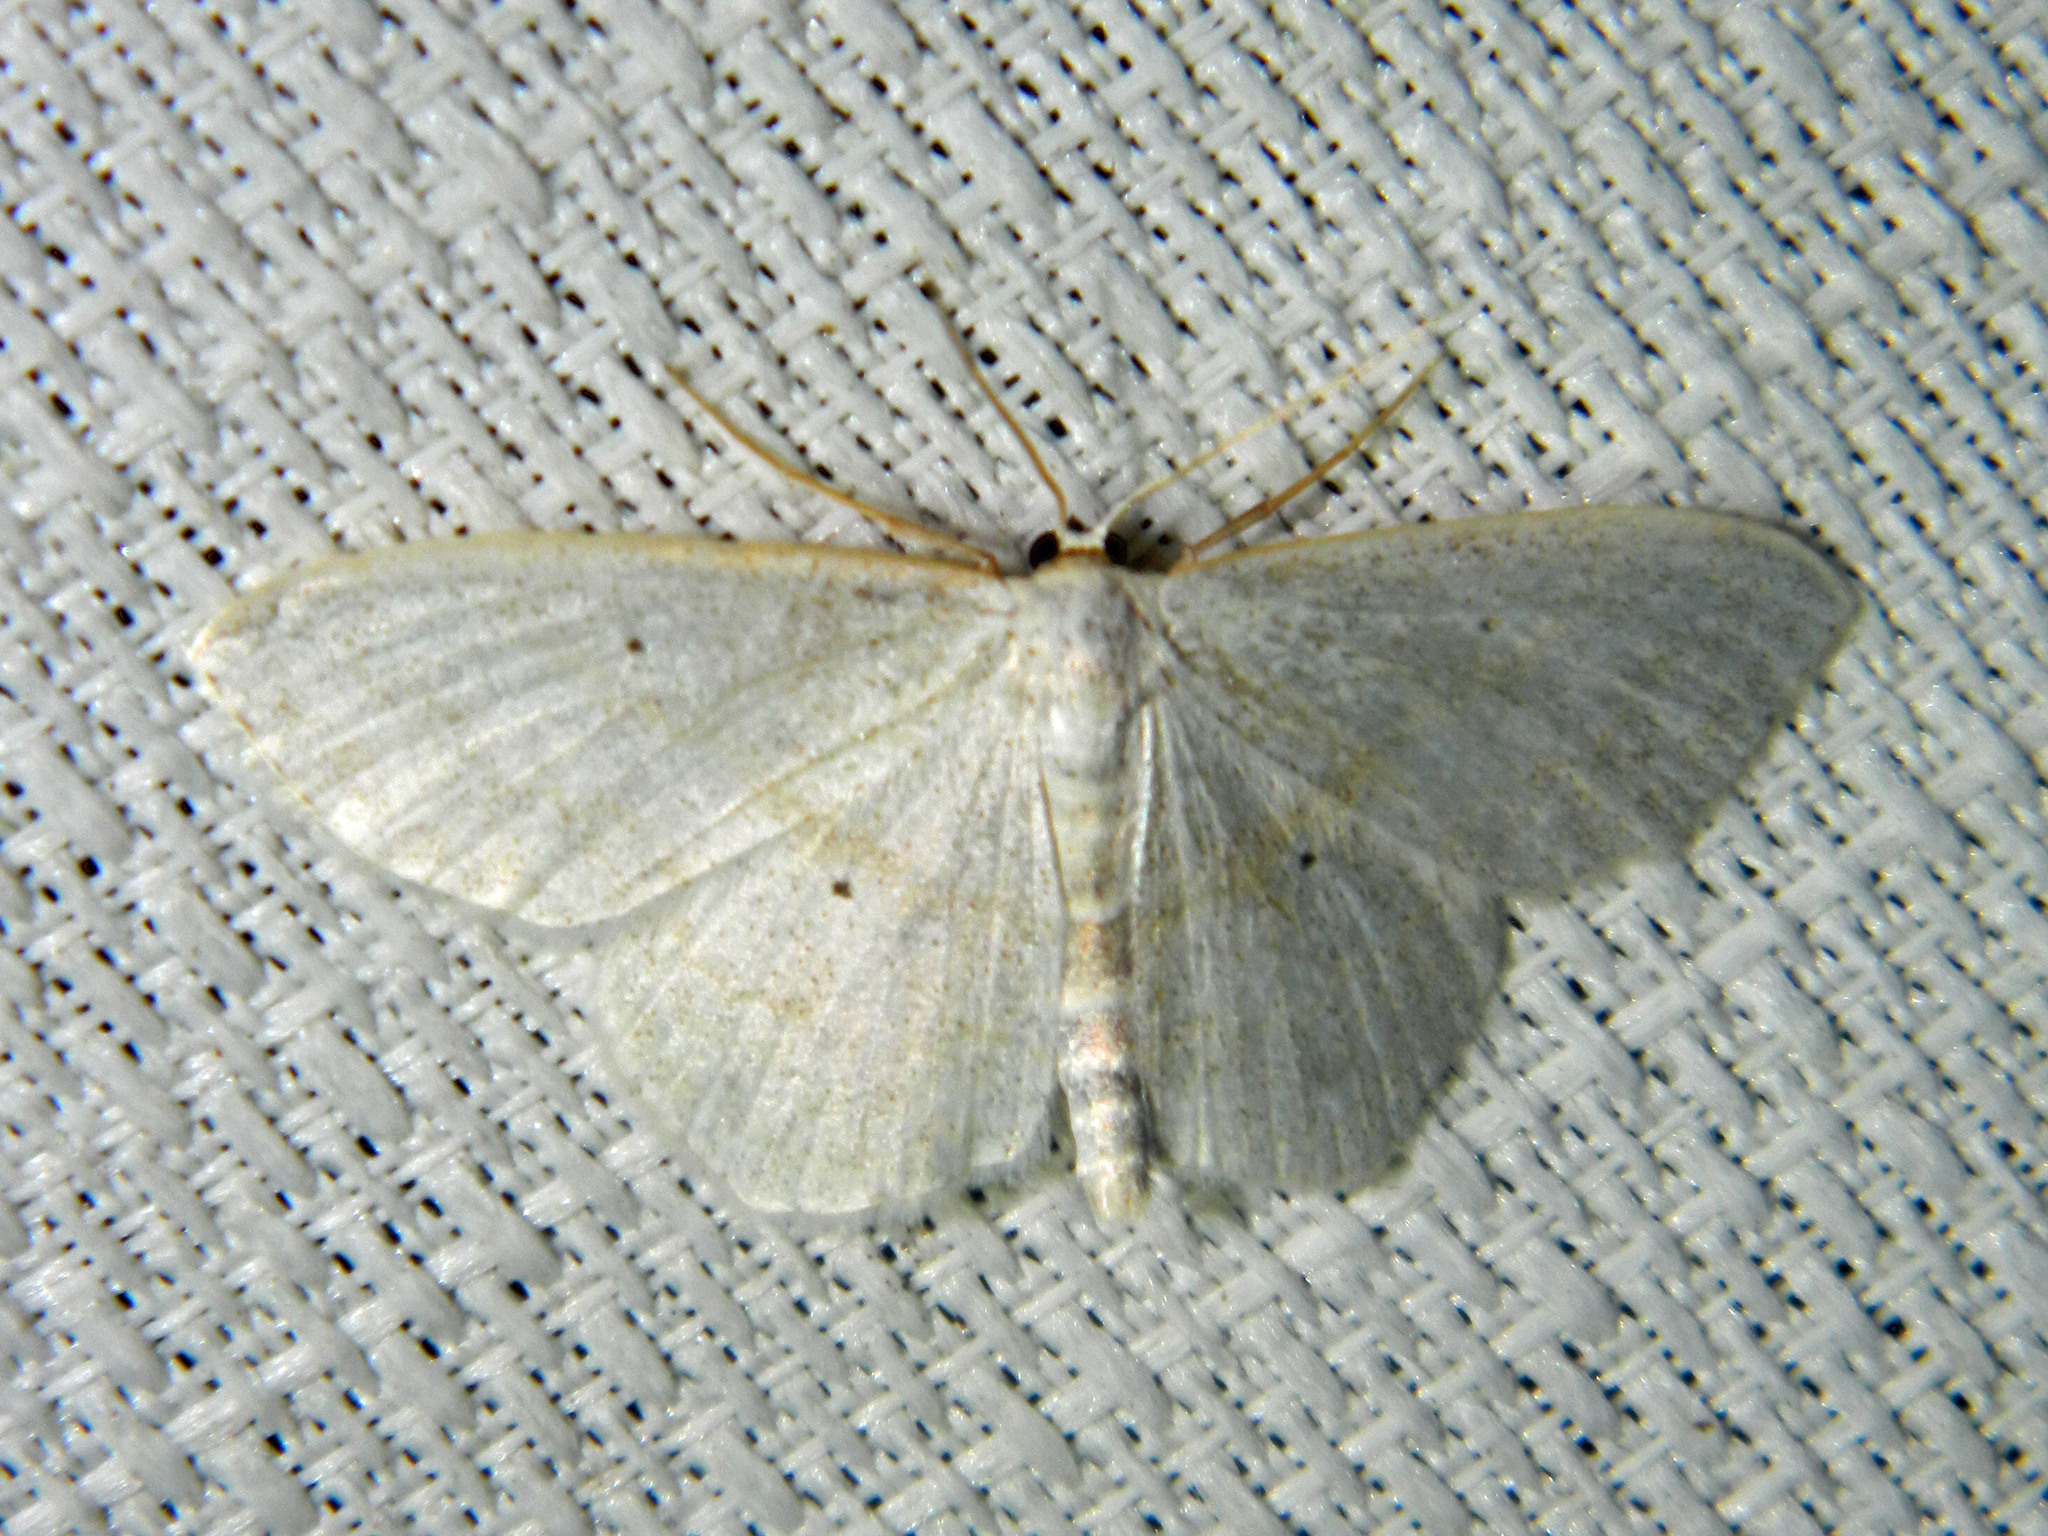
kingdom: Animalia
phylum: Arthropoda
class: Insecta
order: Lepidoptera
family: Geometridae
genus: Scopula
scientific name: Scopula limboundata
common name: Large lace border
